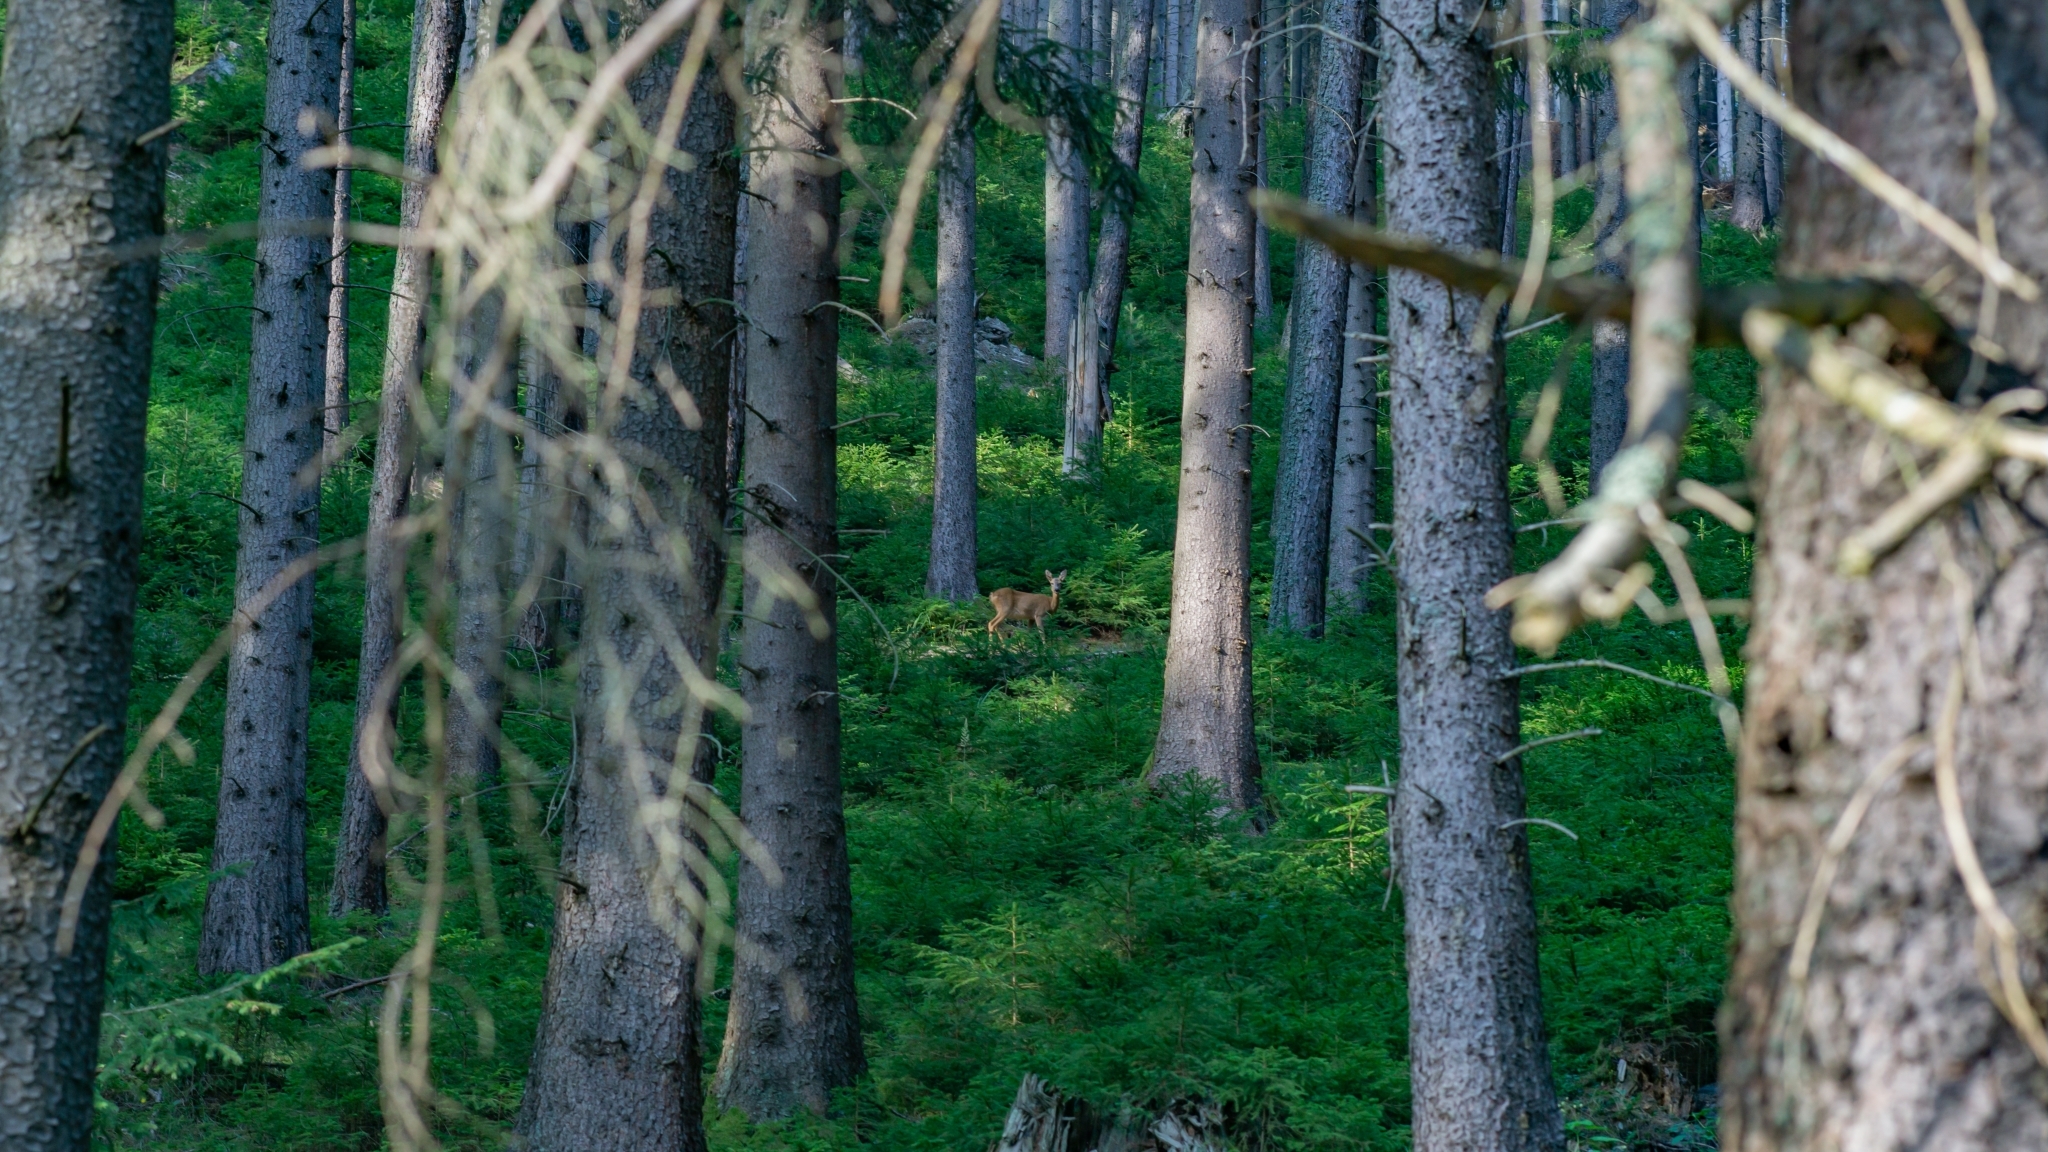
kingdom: Animalia
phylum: Chordata
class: Mammalia
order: Artiodactyla
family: Cervidae
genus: Capreolus
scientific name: Capreolus capreolus
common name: Western roe deer
